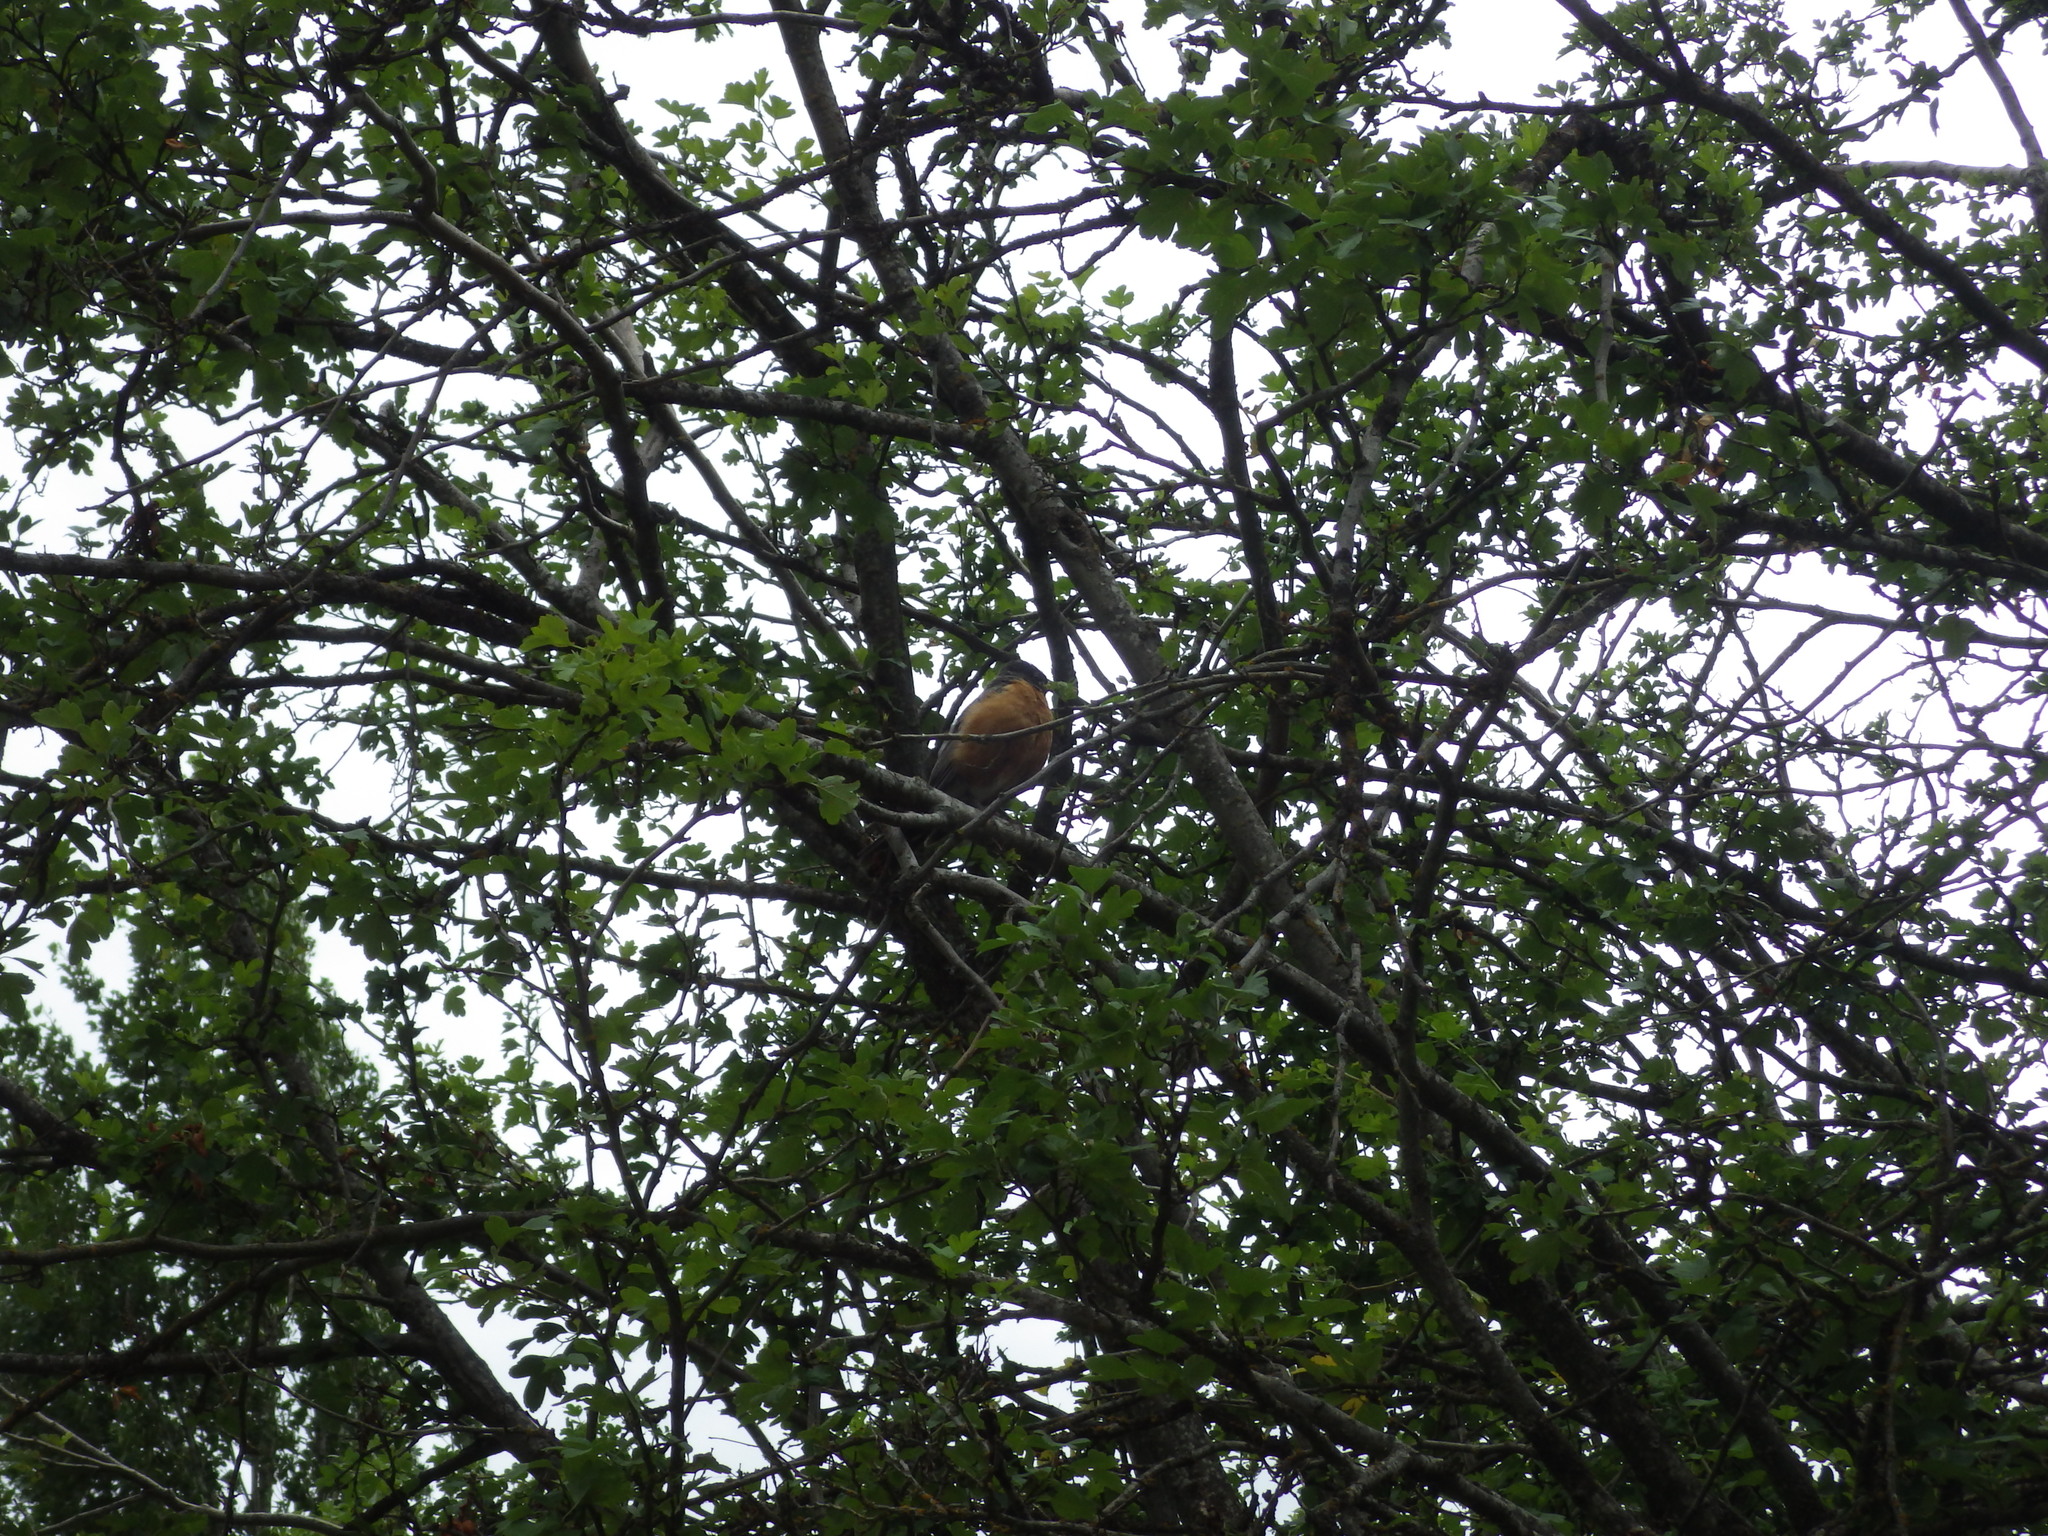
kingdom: Animalia
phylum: Chordata
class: Aves
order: Passeriformes
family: Turdidae
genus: Turdus
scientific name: Turdus migratorius
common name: American robin
